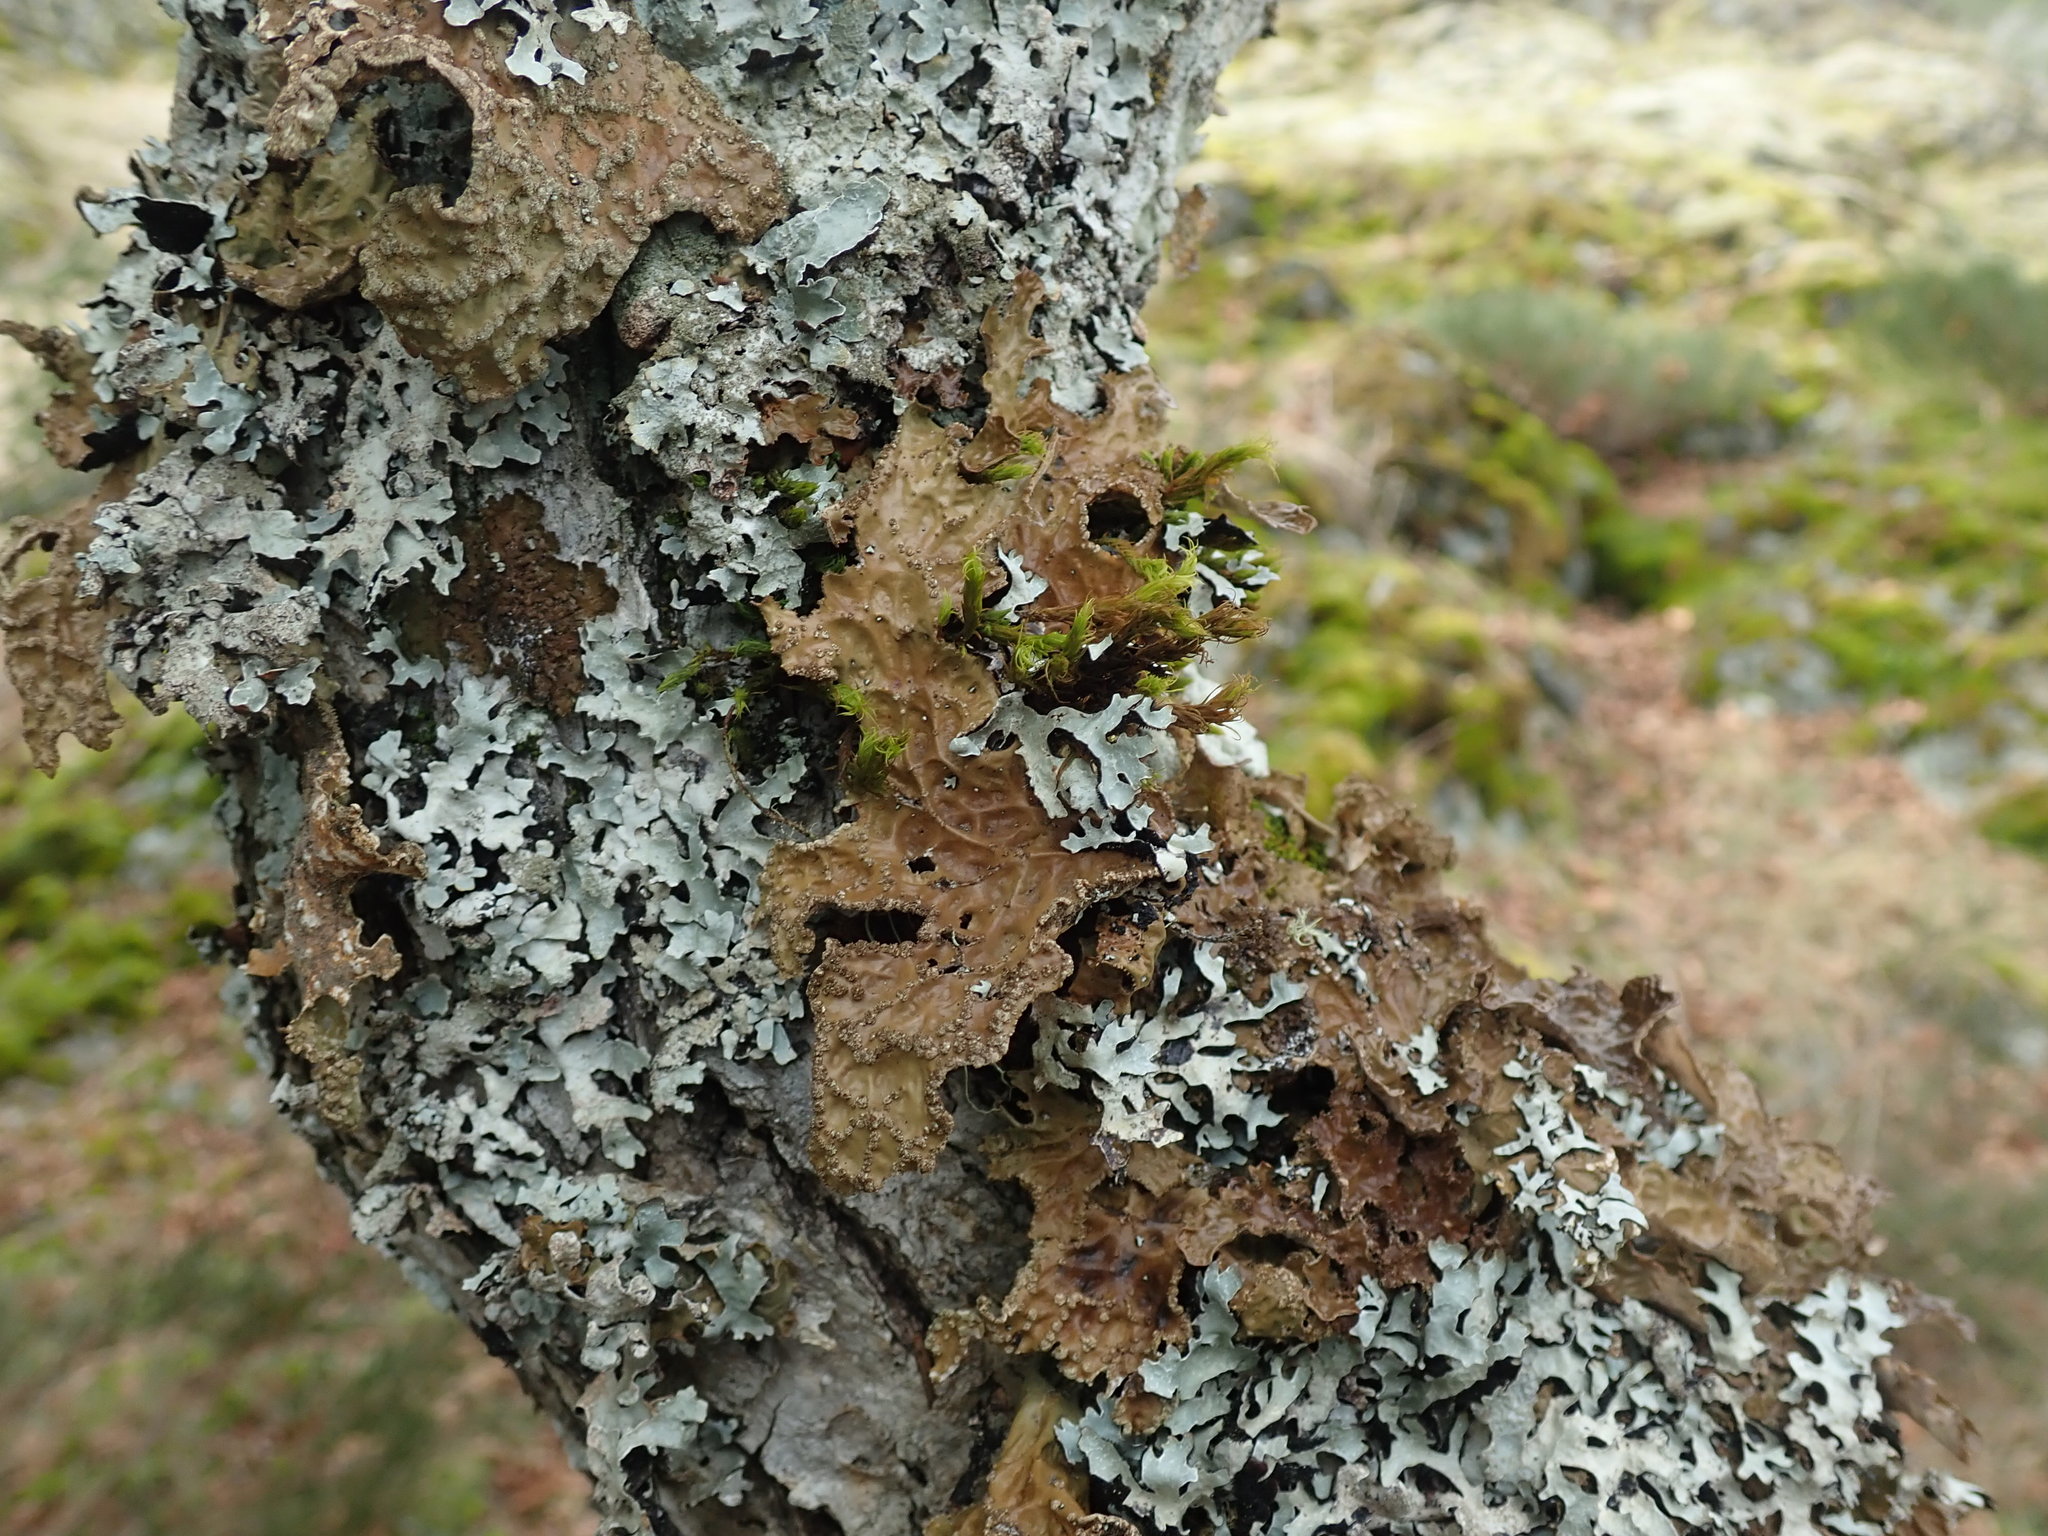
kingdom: Fungi
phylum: Ascomycota
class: Lecanoromycetes
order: Peltigerales
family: Lobariaceae
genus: Lobaria
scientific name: Lobaria pulmonaria
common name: Lungwort
